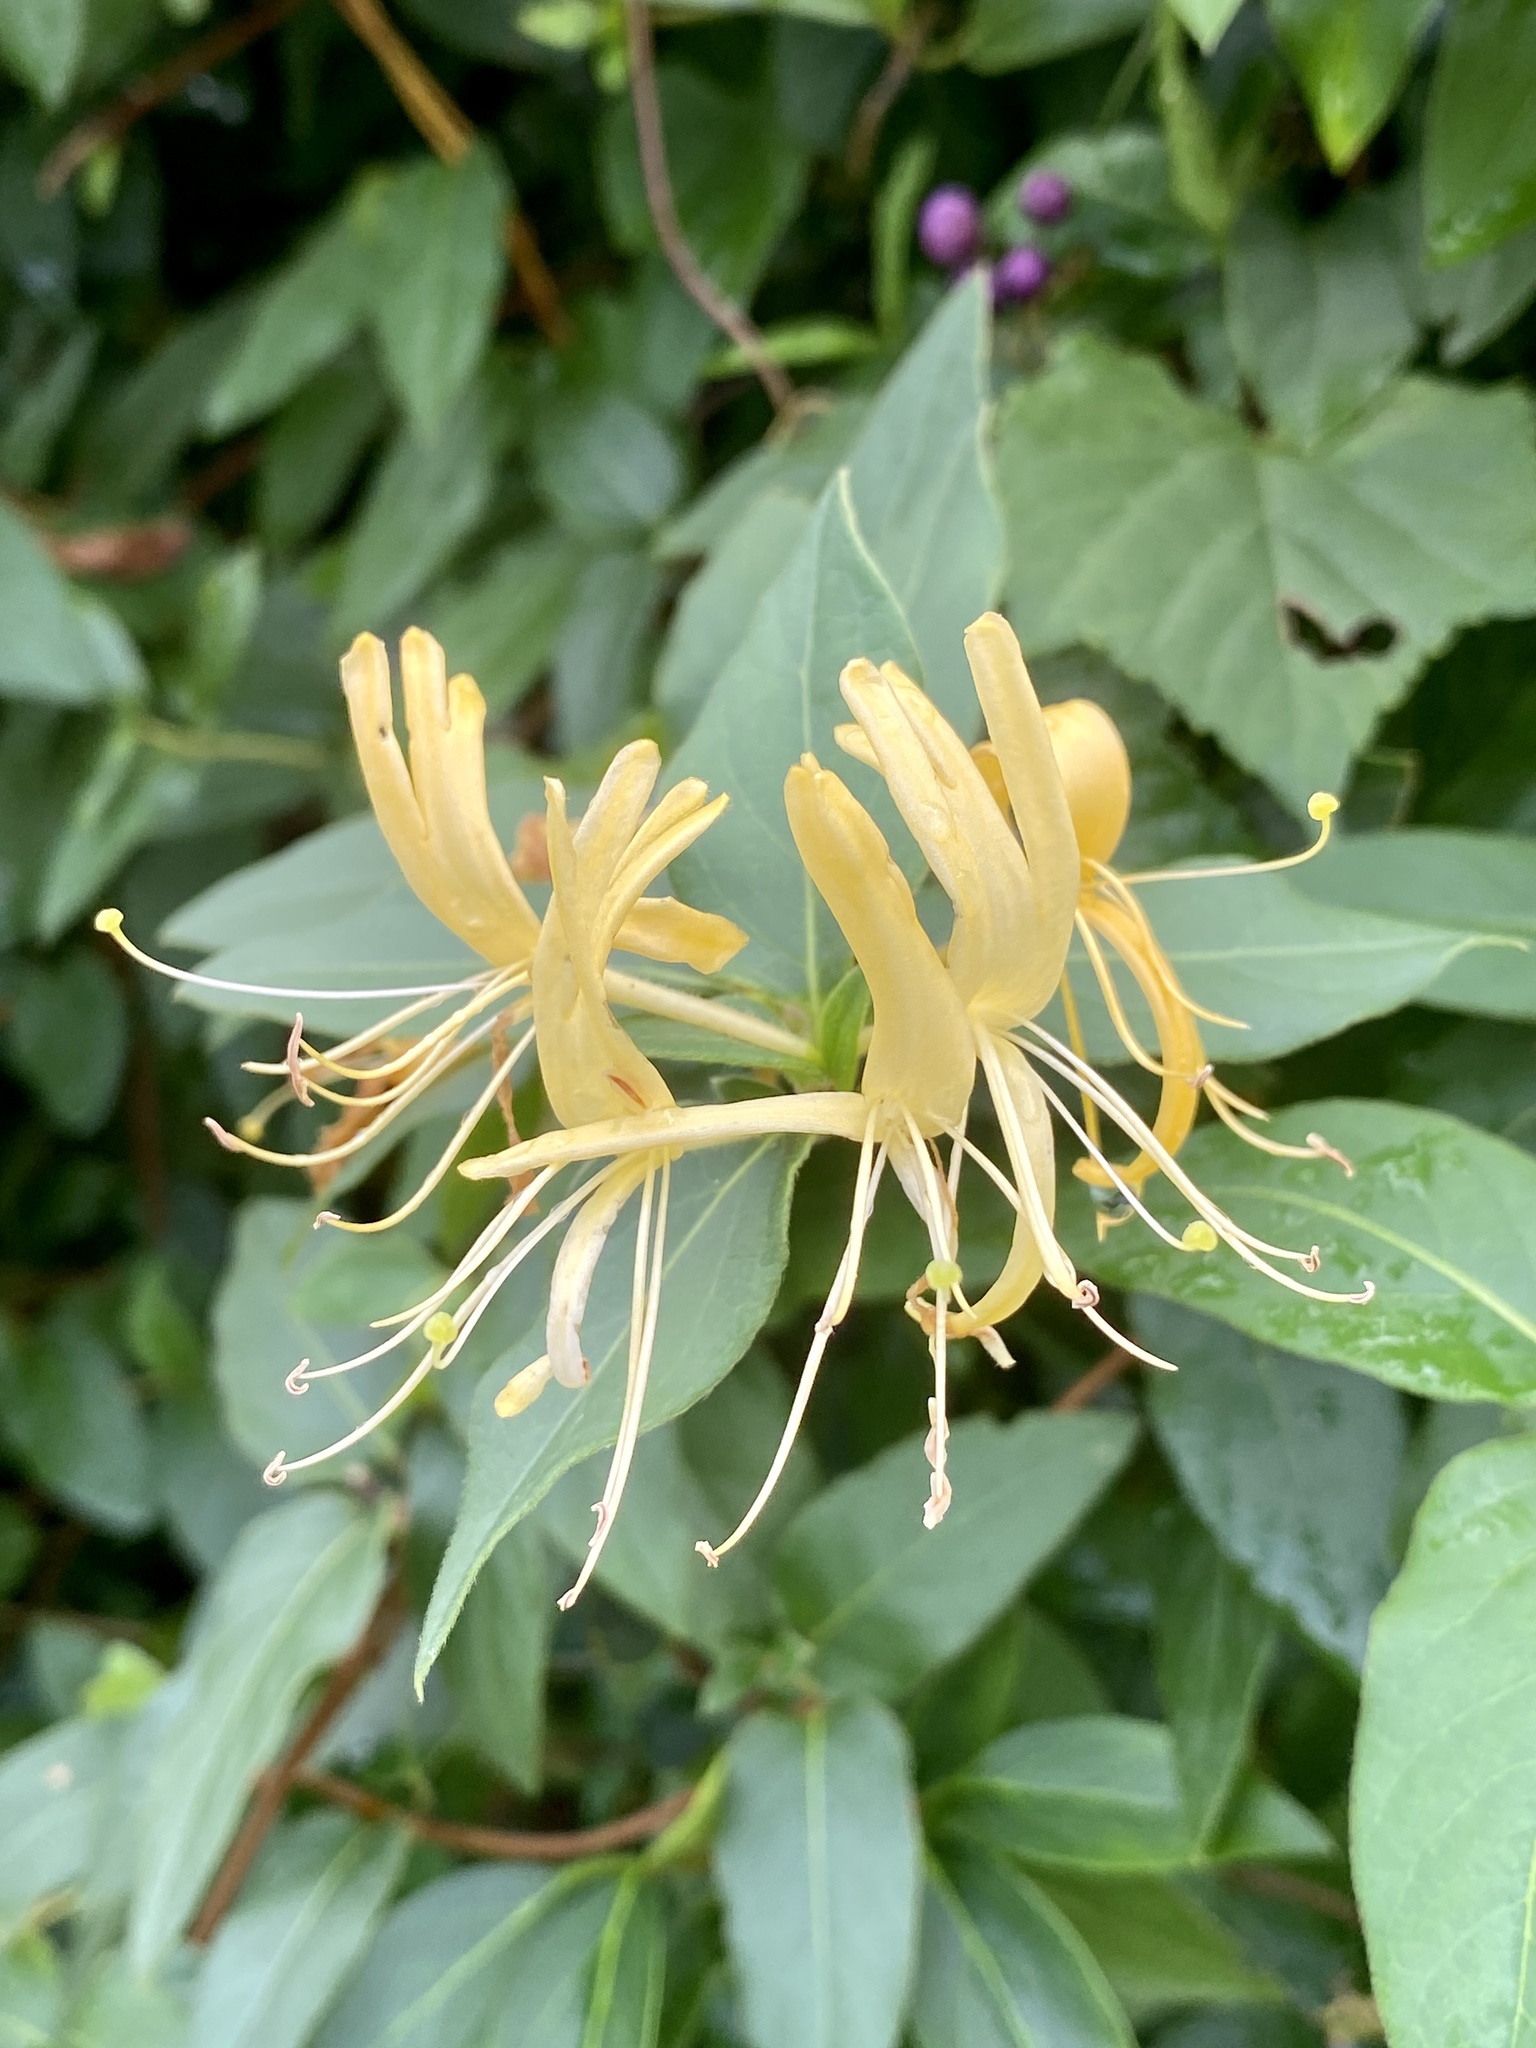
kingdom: Plantae
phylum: Tracheophyta
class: Magnoliopsida
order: Dipsacales
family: Caprifoliaceae
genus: Lonicera
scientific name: Lonicera japonica
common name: Japanese honeysuckle
